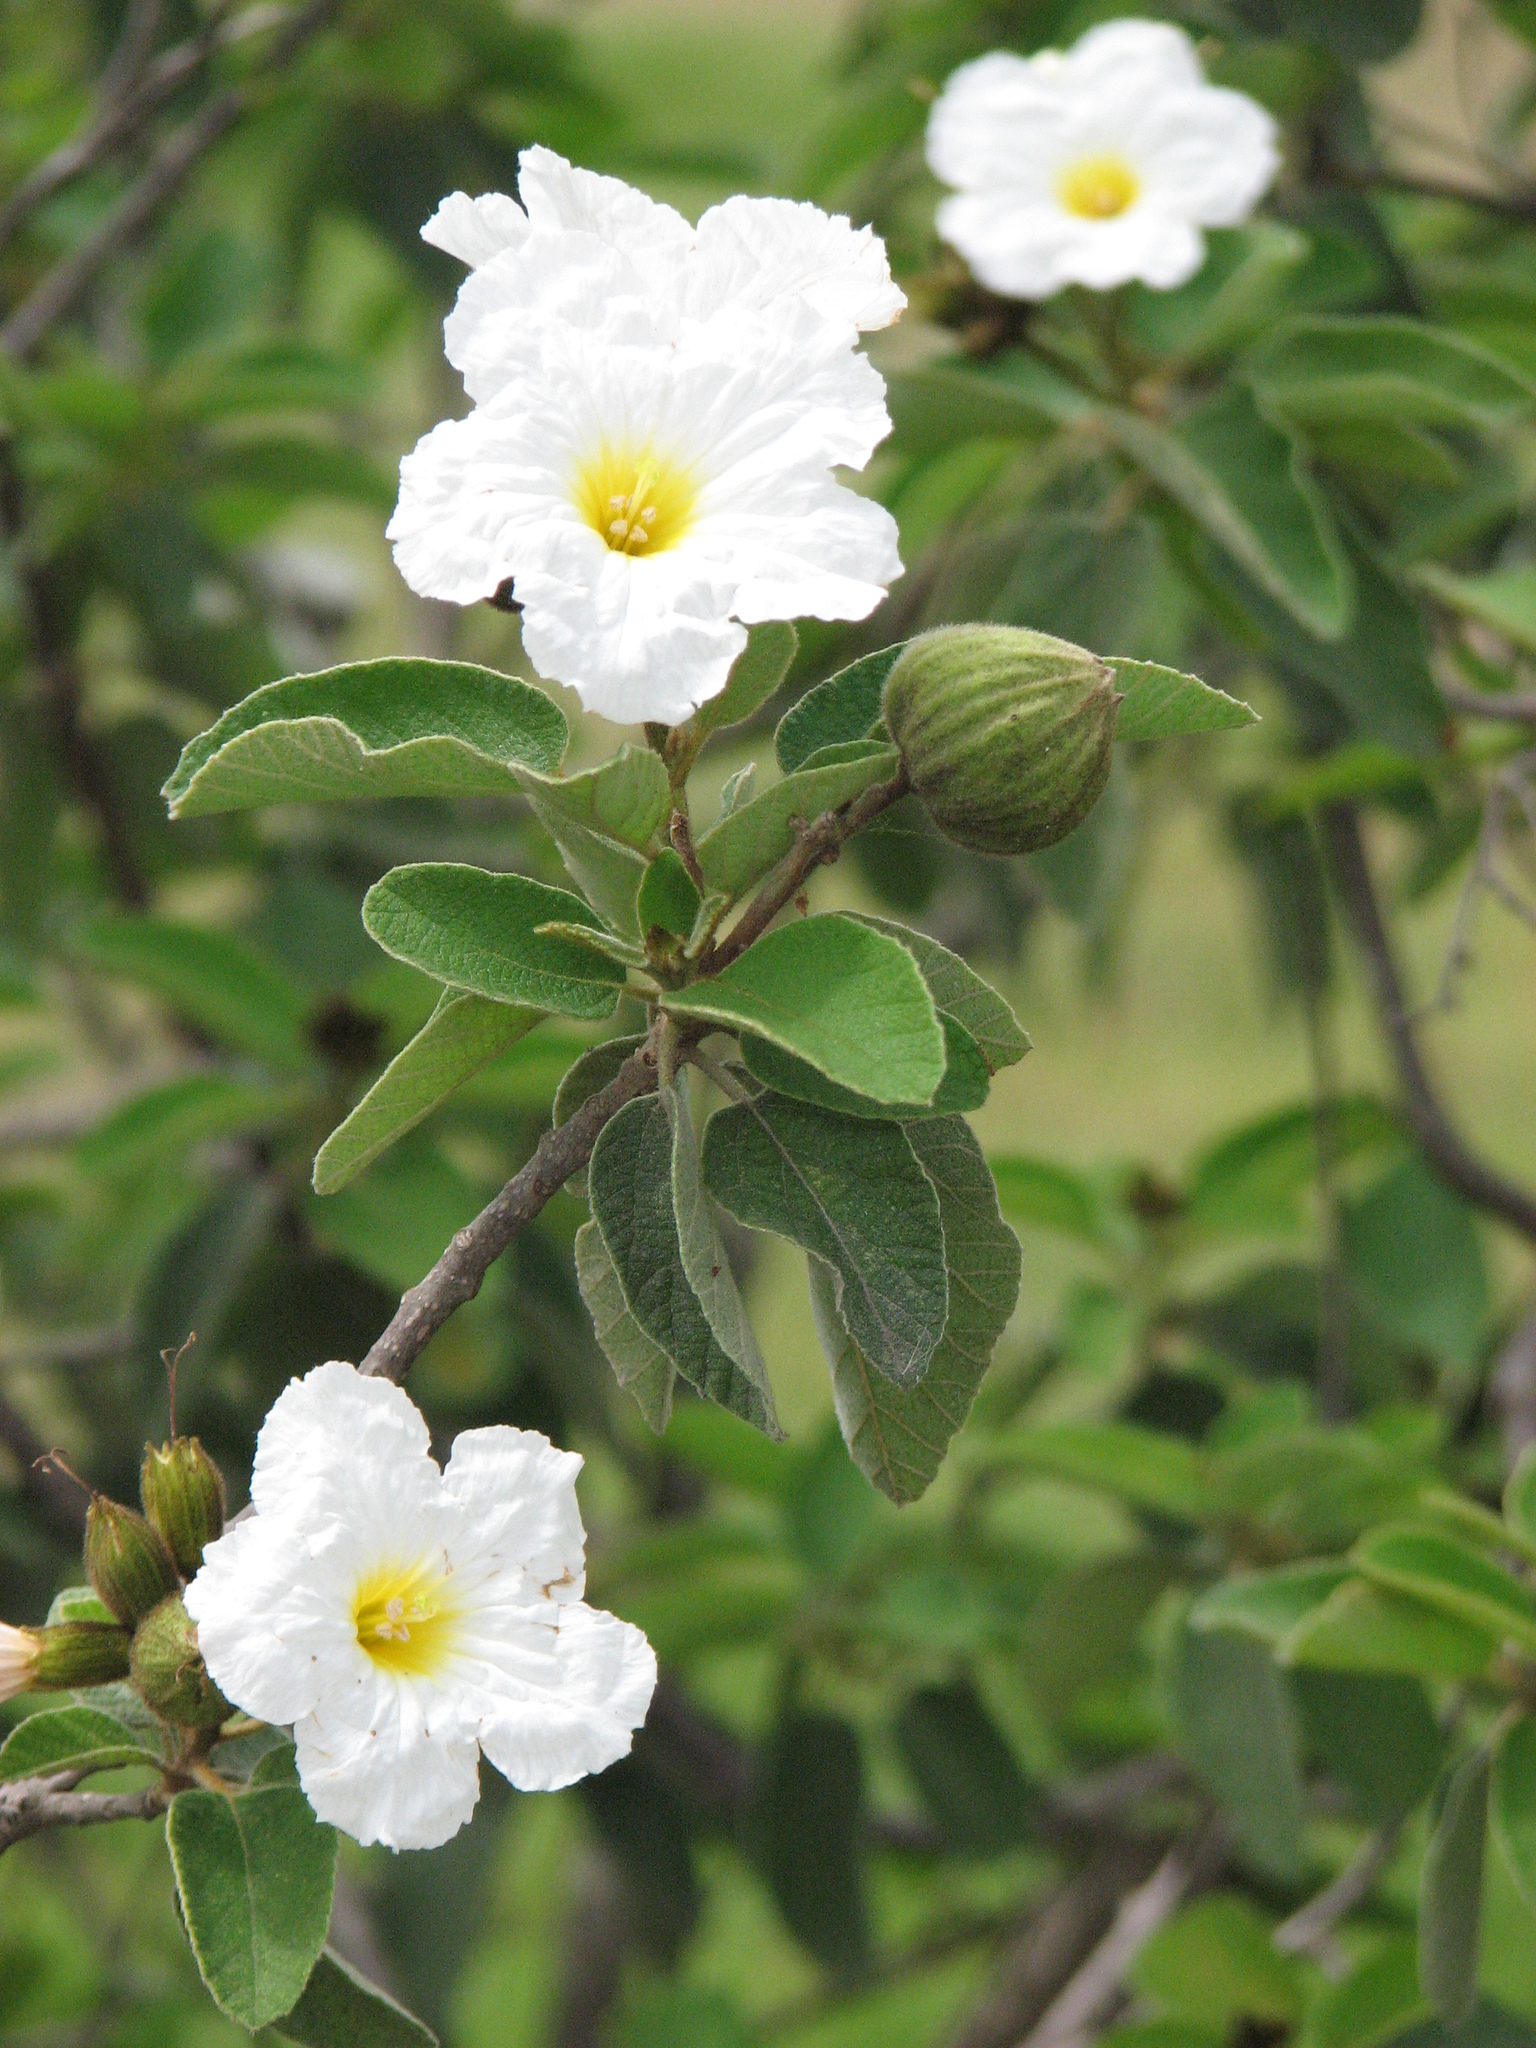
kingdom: Plantae
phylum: Tracheophyta
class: Magnoliopsida
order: Boraginales
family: Cordiaceae
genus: Cordia
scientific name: Cordia boissieri
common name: Mexican-olive
